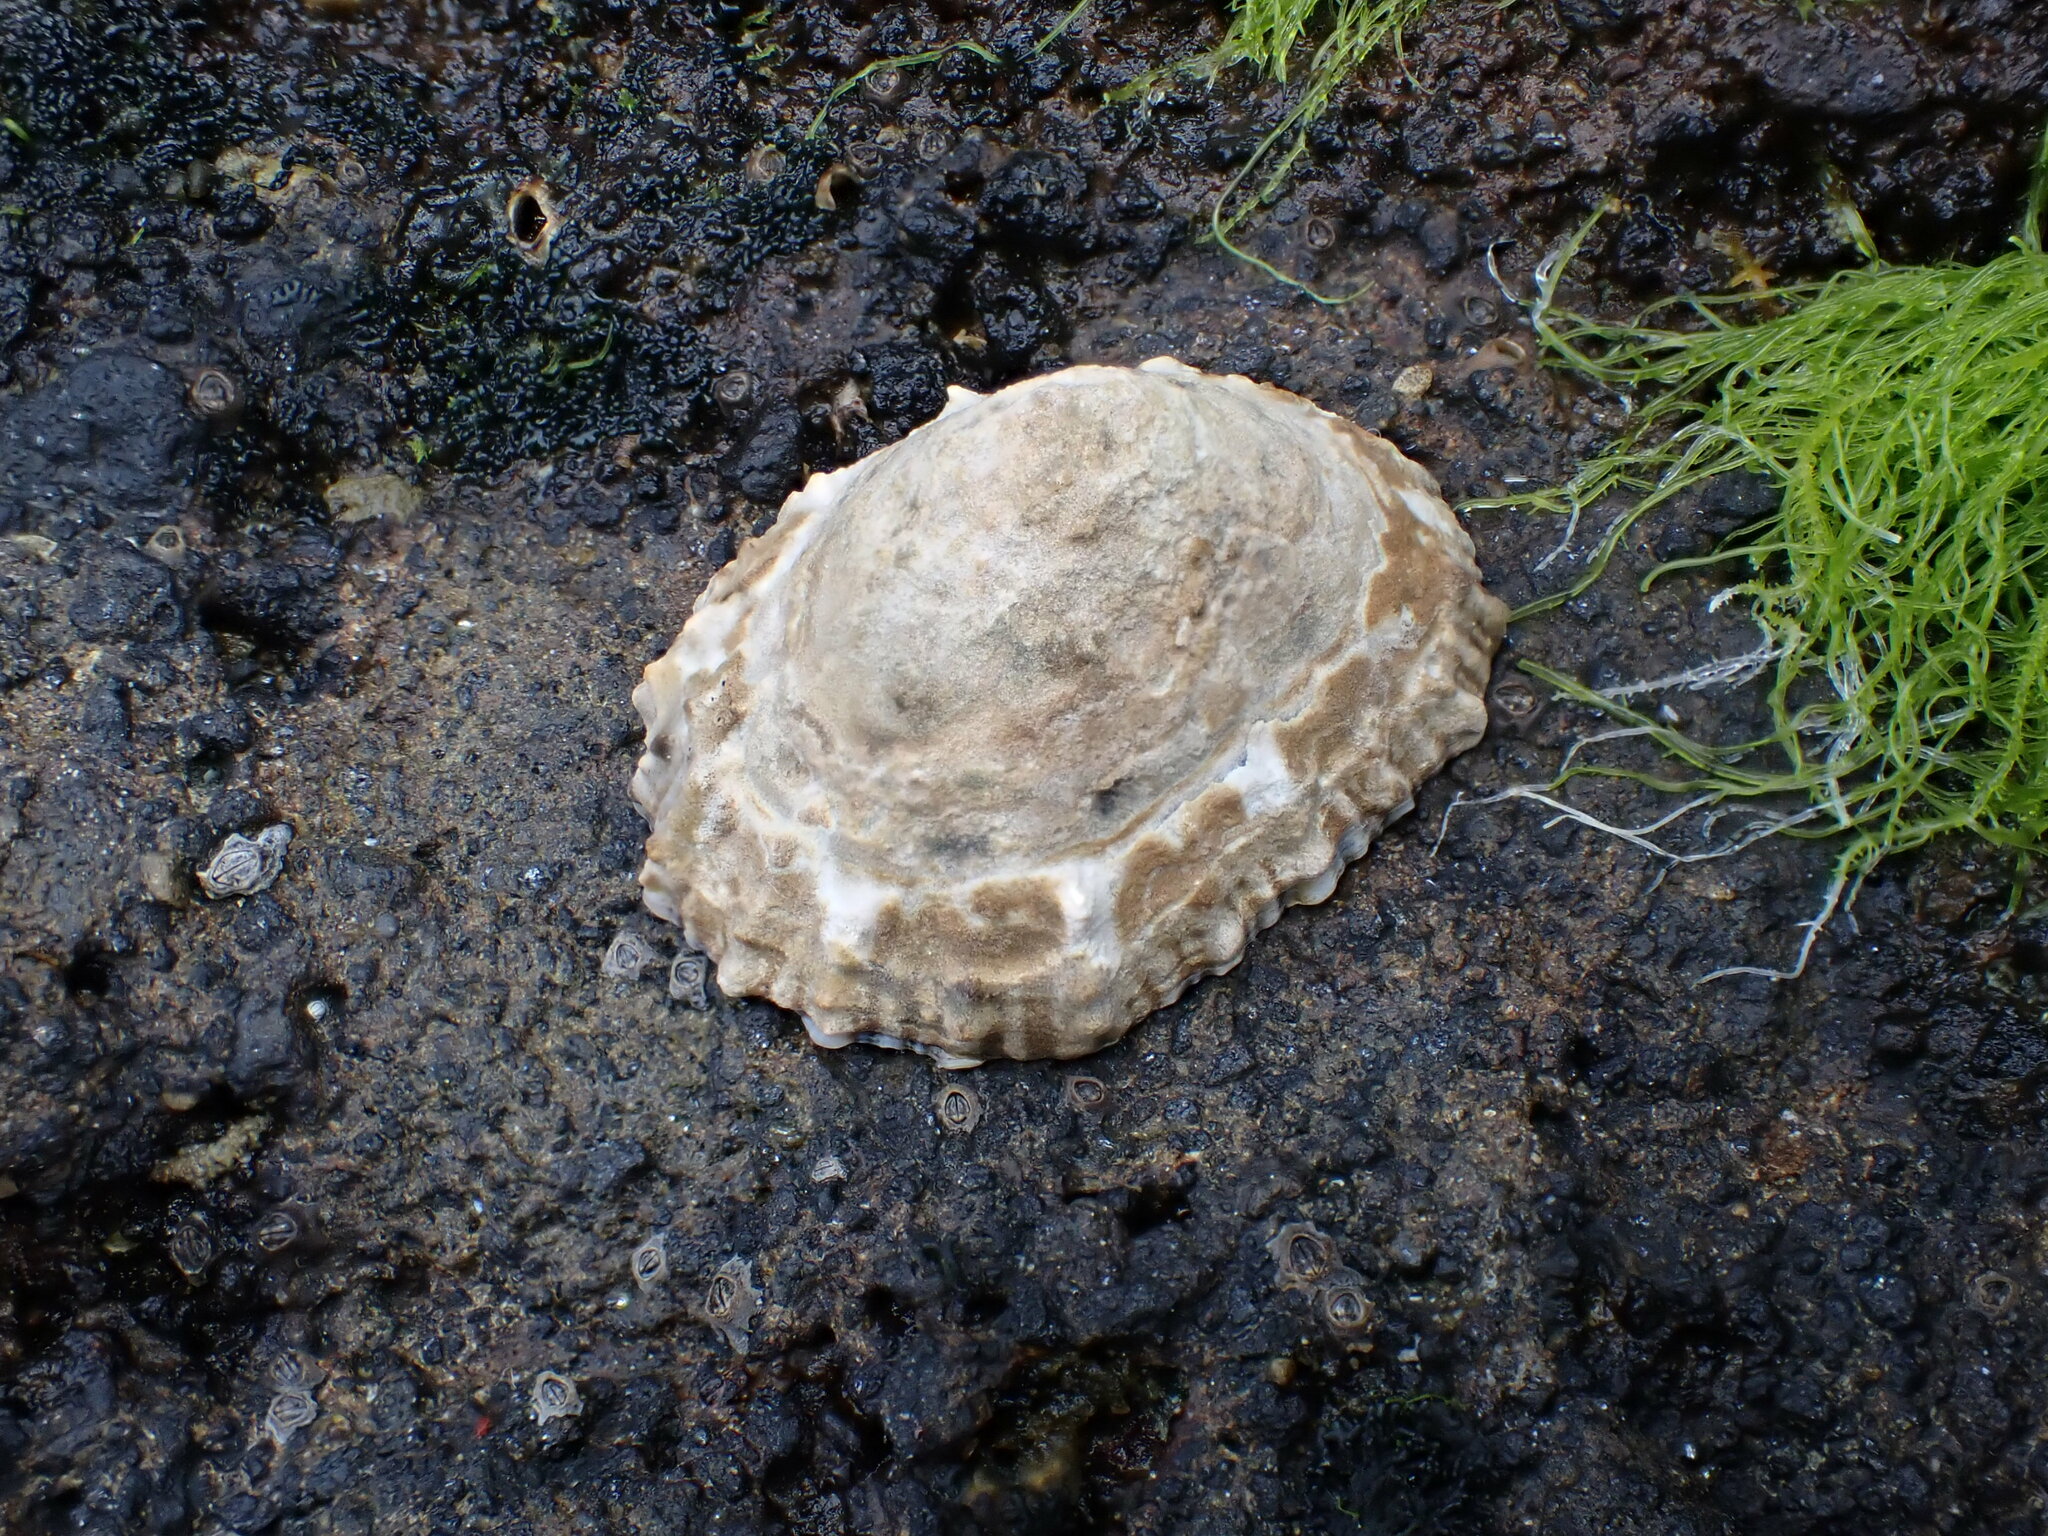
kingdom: Animalia
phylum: Mollusca
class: Gastropoda
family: Nacellidae
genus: Cellana
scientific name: Cellana ornata
